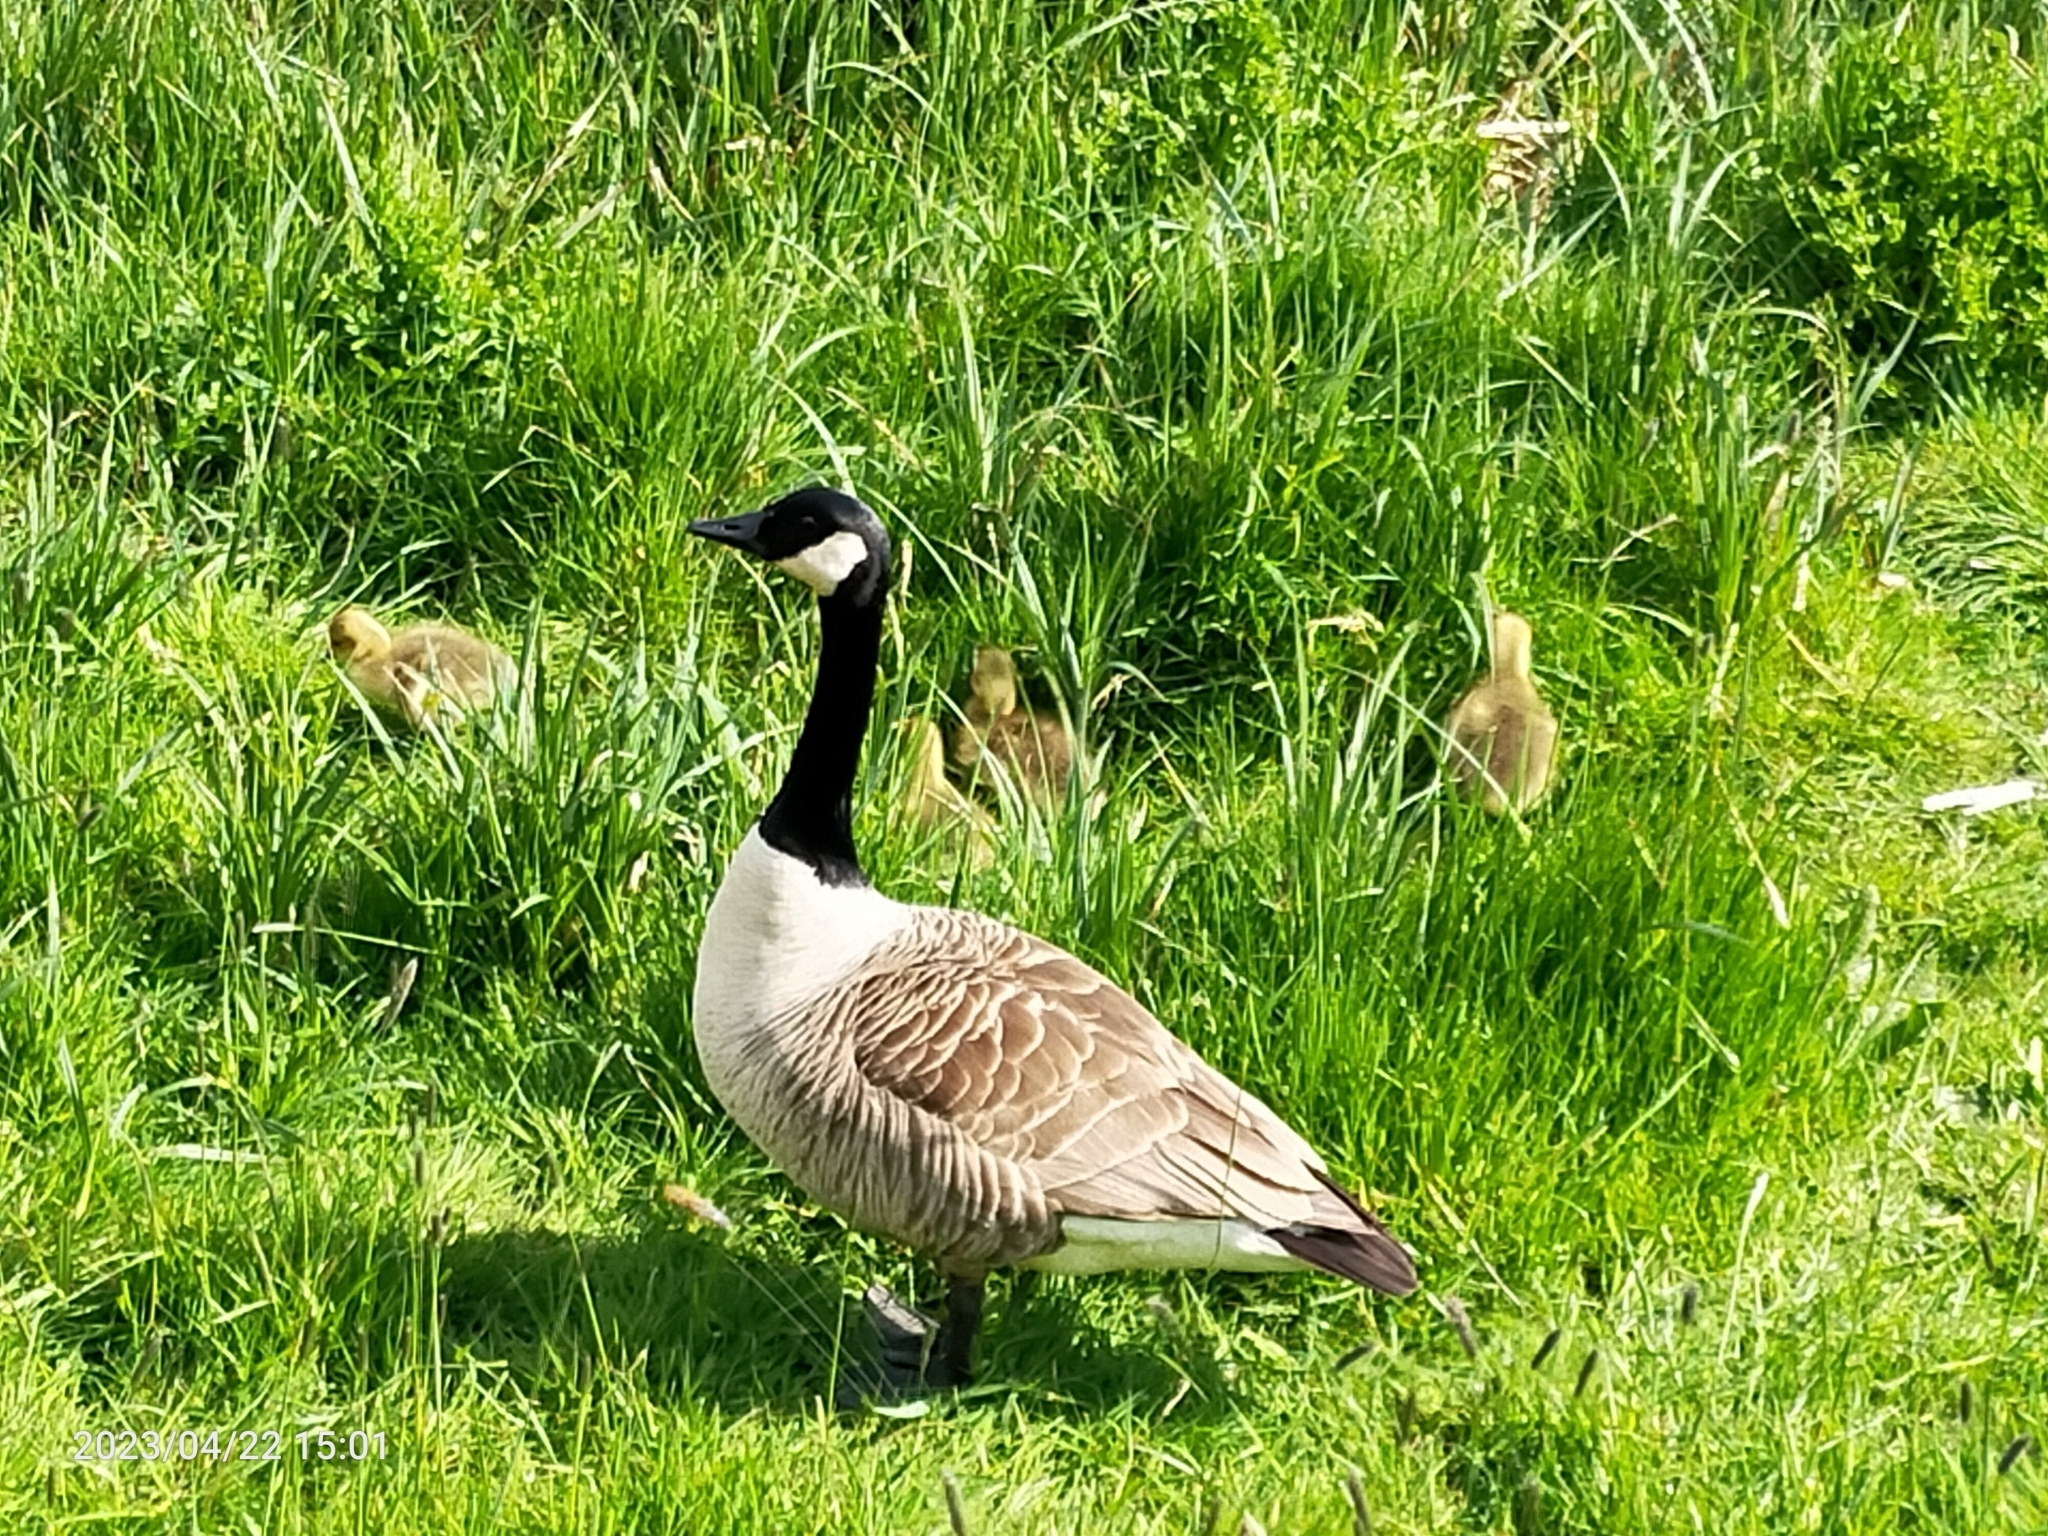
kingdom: Animalia
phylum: Chordata
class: Aves
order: Anseriformes
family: Anatidae
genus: Branta
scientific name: Branta canadensis
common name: Canada goose
